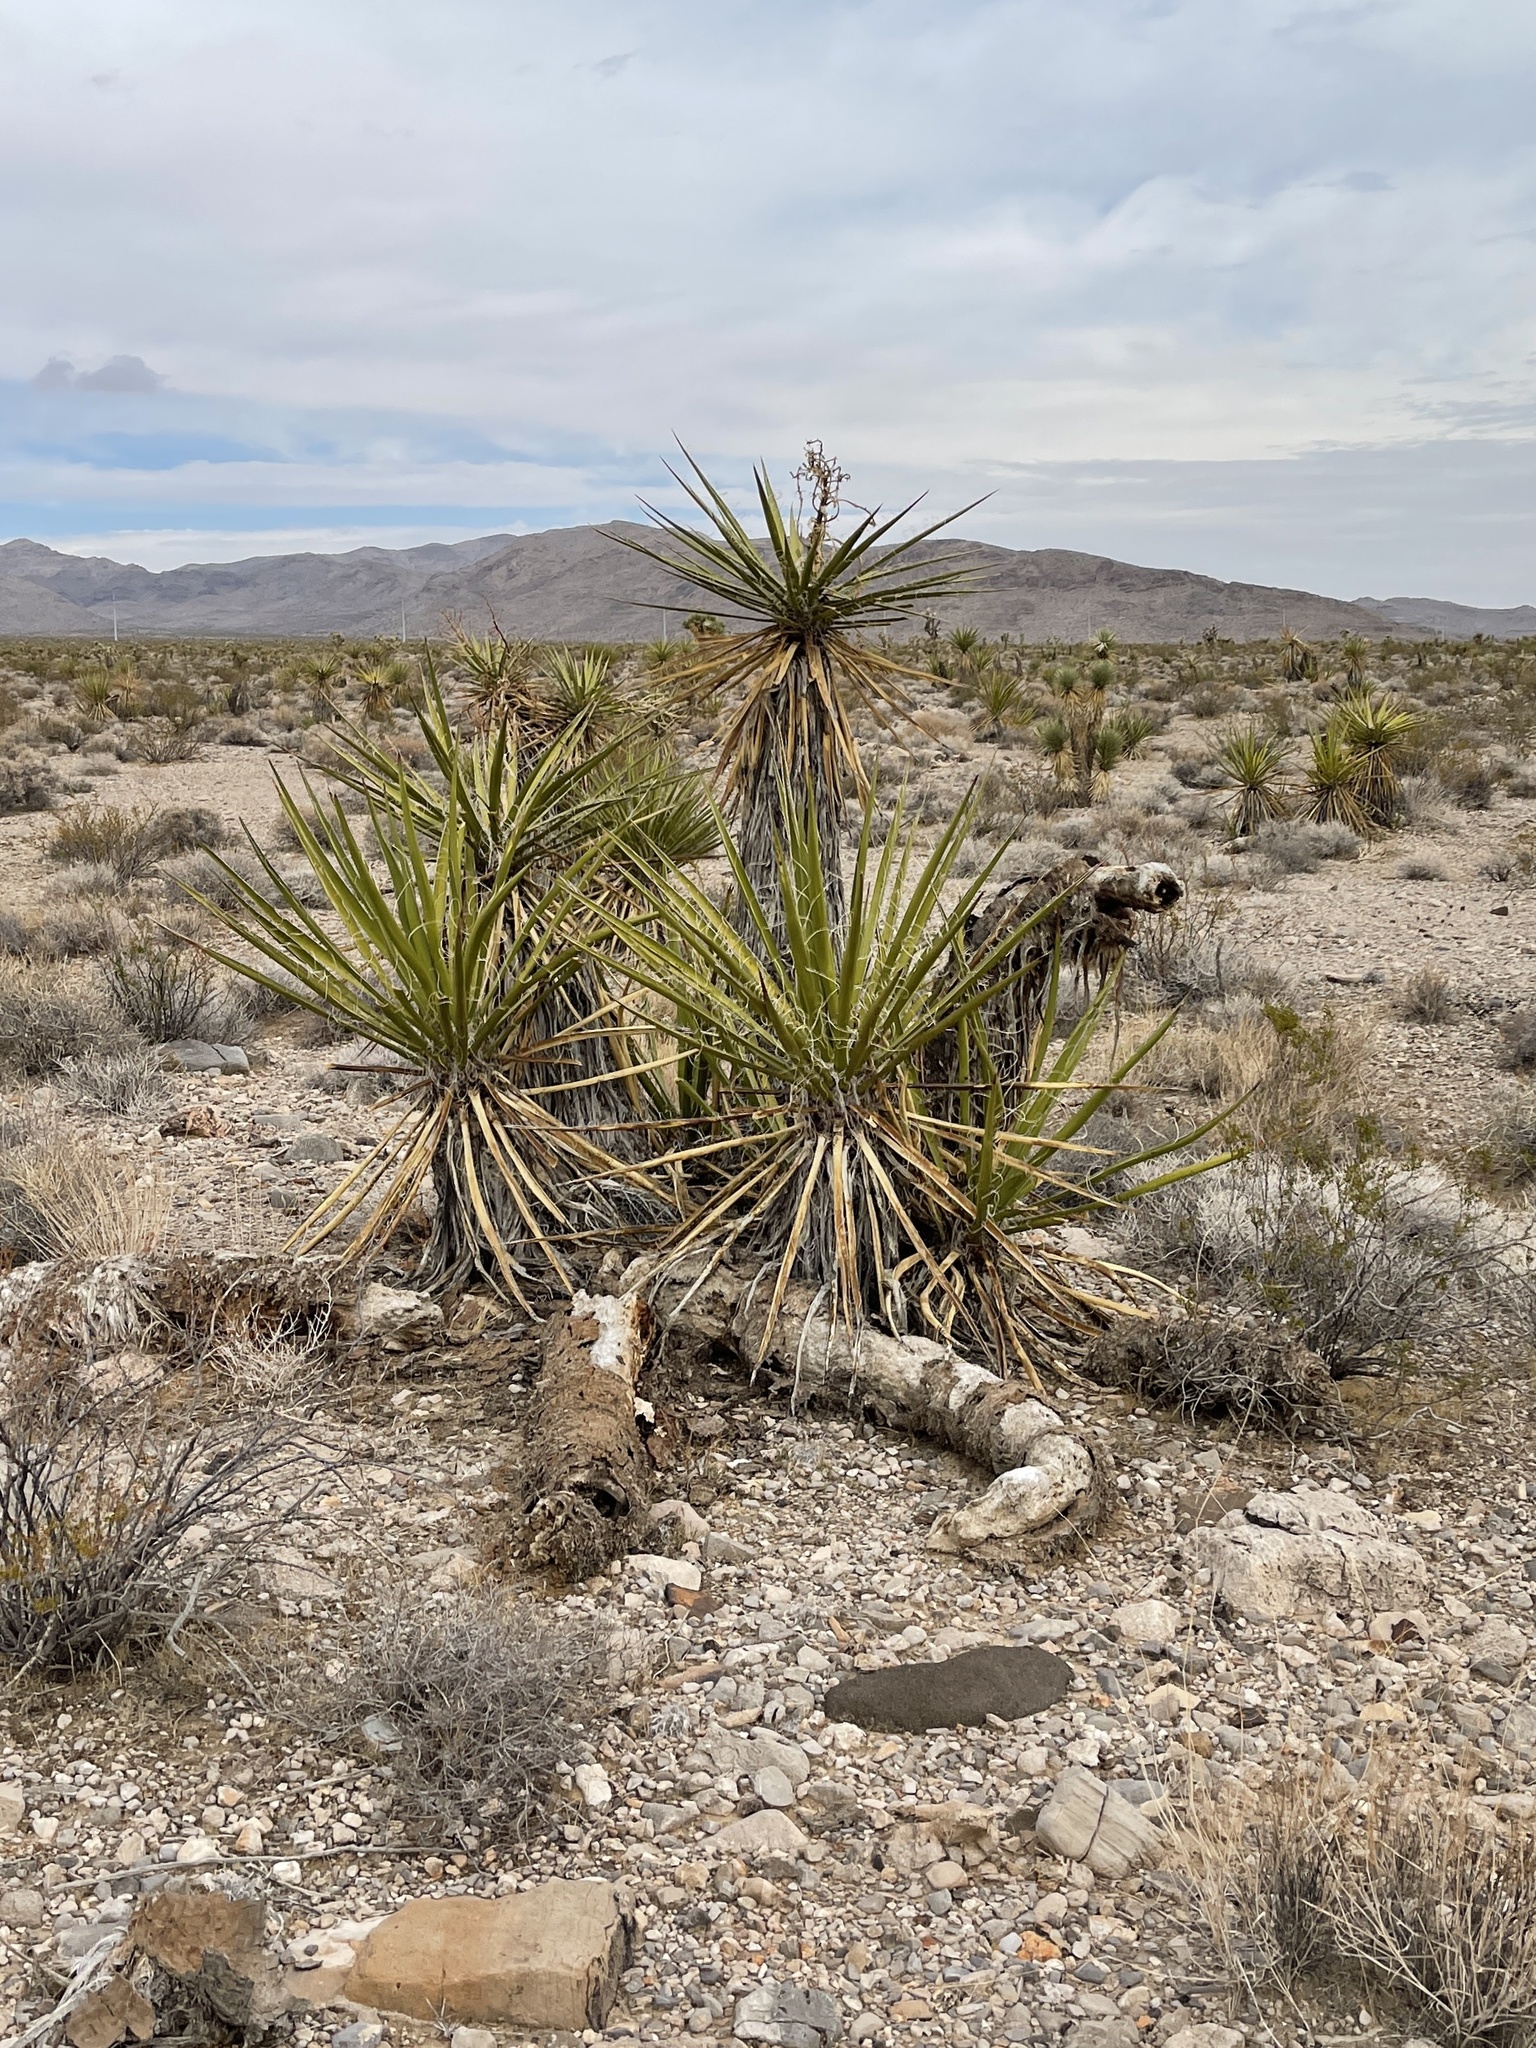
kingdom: Plantae
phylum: Tracheophyta
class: Liliopsida
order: Asparagales
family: Asparagaceae
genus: Yucca
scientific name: Yucca schidigera
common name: Mojave yucca
